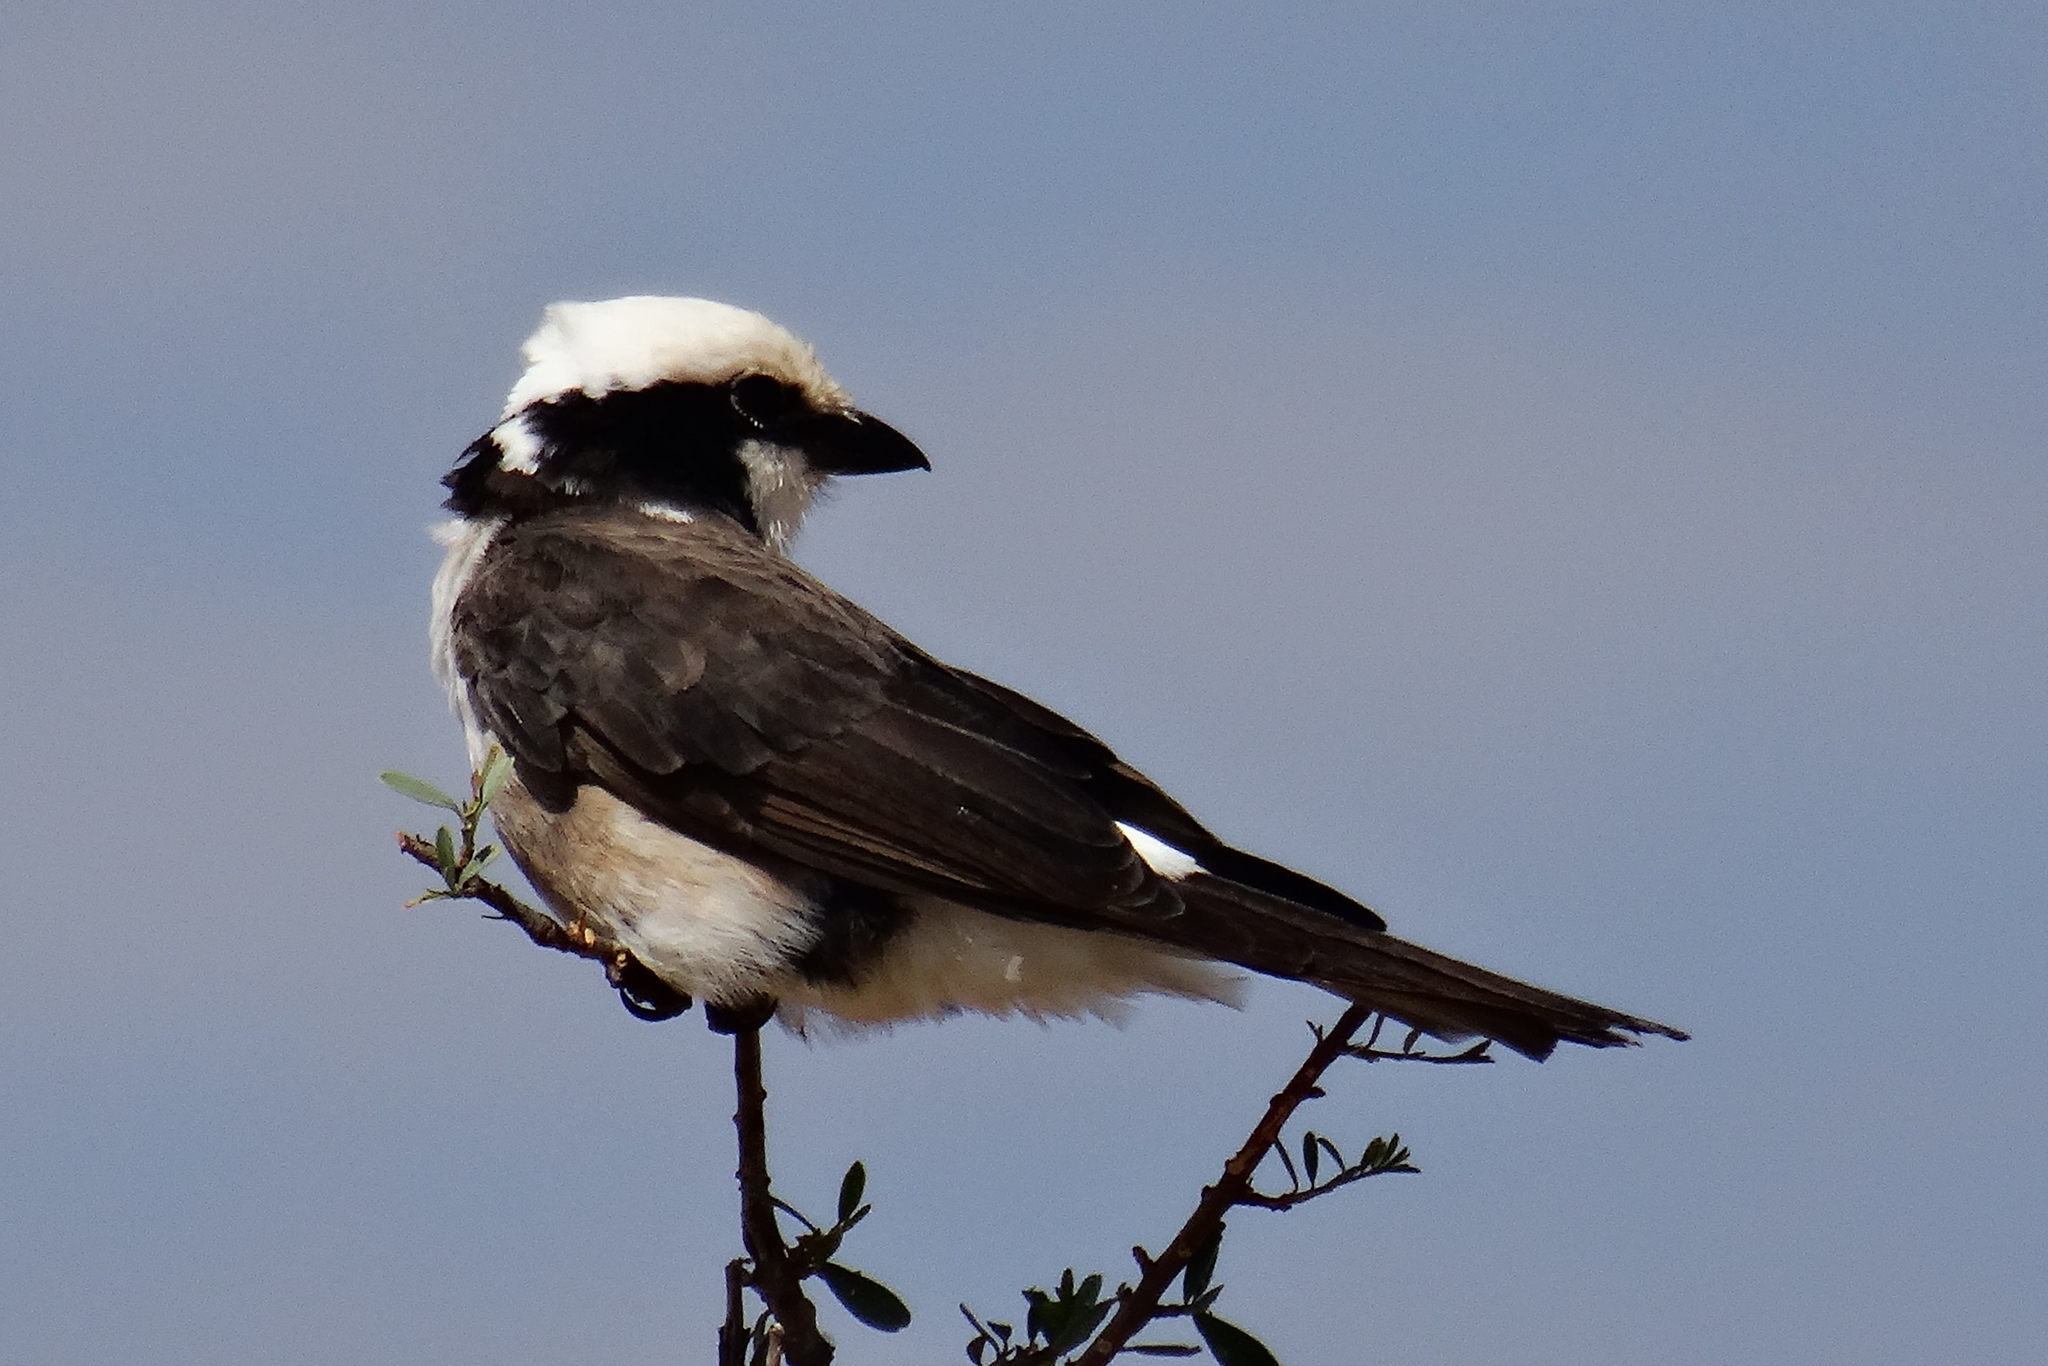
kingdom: Animalia
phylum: Chordata
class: Aves
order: Passeriformes
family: Laniidae
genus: Eurocephalus
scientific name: Eurocephalus ruppelli
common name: Northern white-crowned shrike
